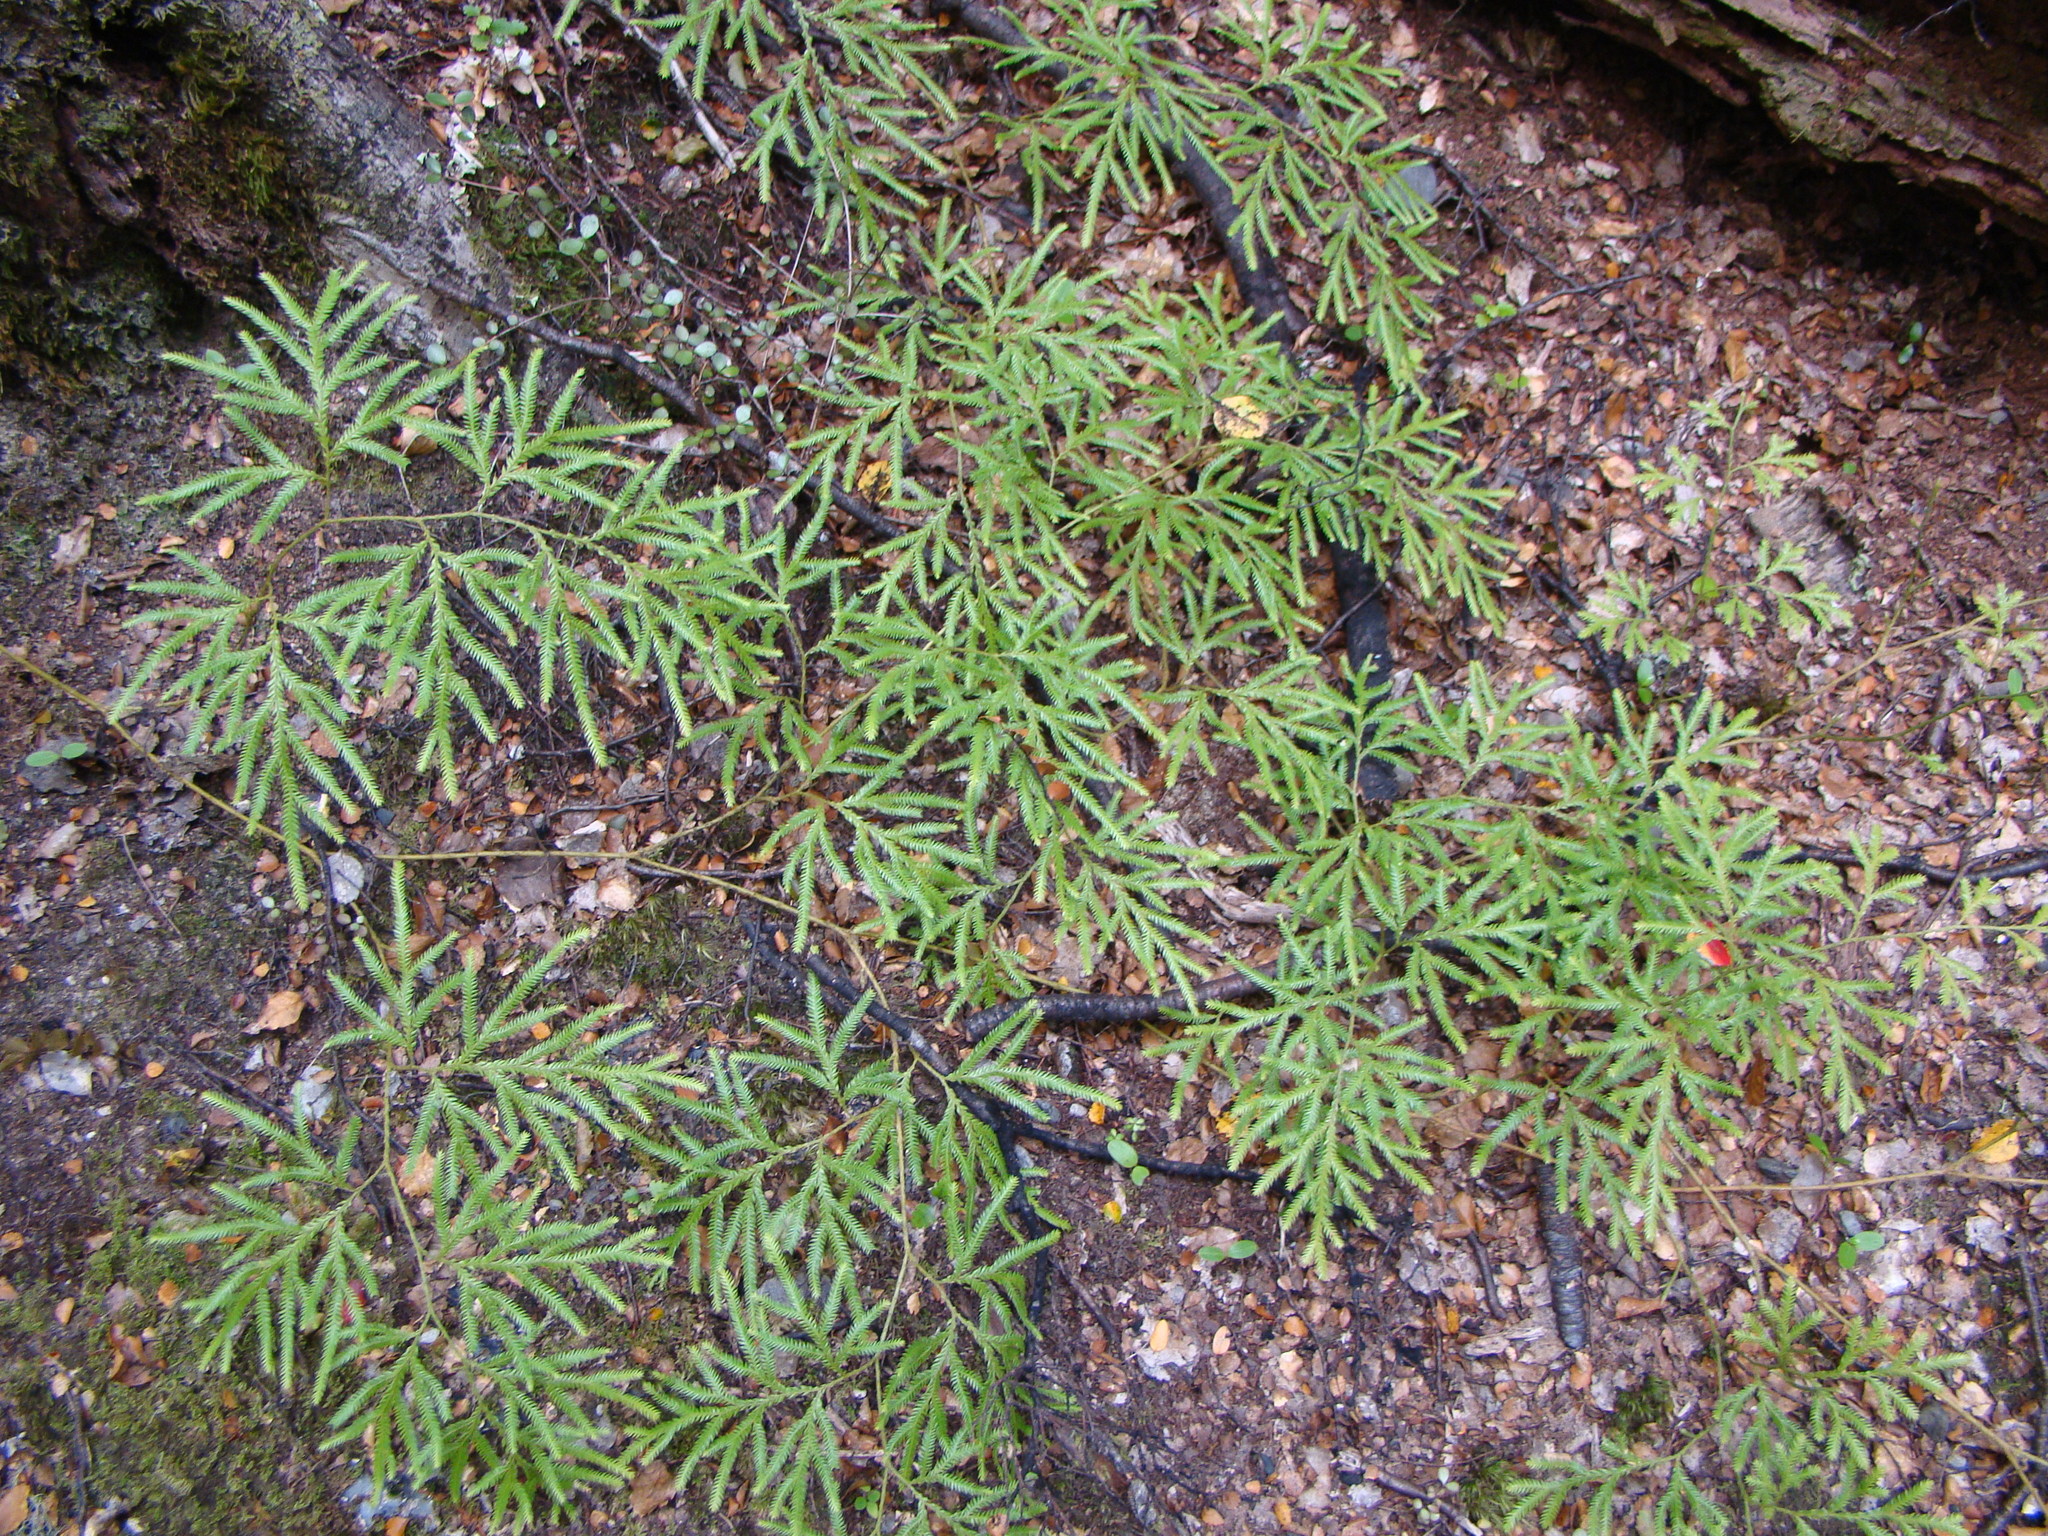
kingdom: Plantae
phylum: Tracheophyta
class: Lycopodiopsida
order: Lycopodiales
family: Lycopodiaceae
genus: Lycopodium
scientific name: Lycopodium volubile
